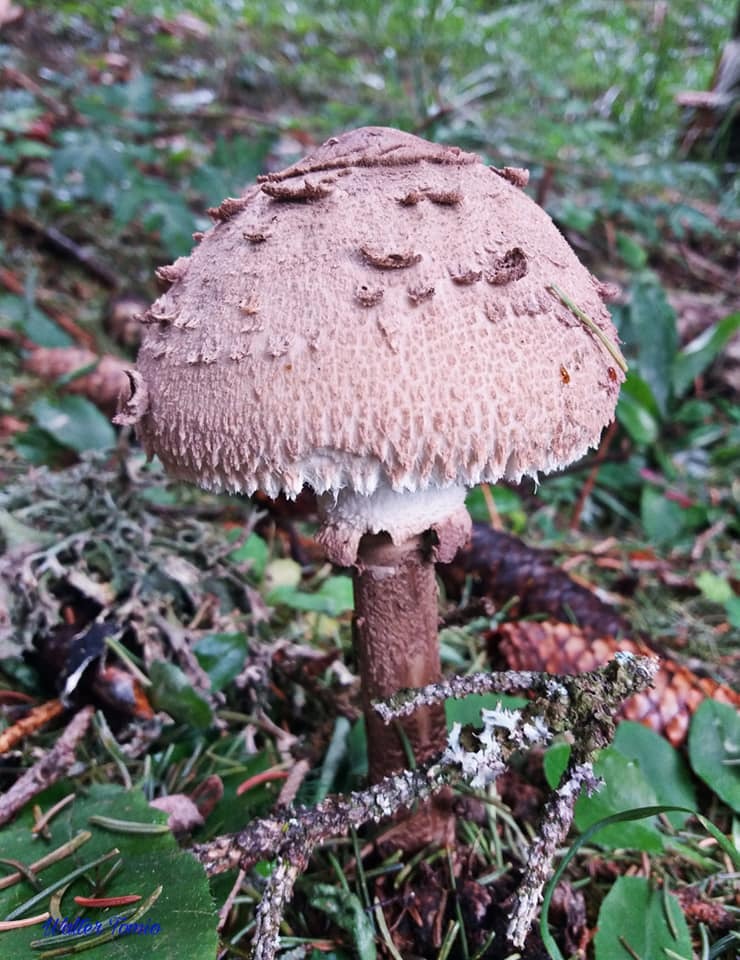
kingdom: Fungi
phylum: Basidiomycota
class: Agaricomycetes
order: Agaricales
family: Agaricaceae
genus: Macrolepiota
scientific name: Macrolepiota procera
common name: Parasol
